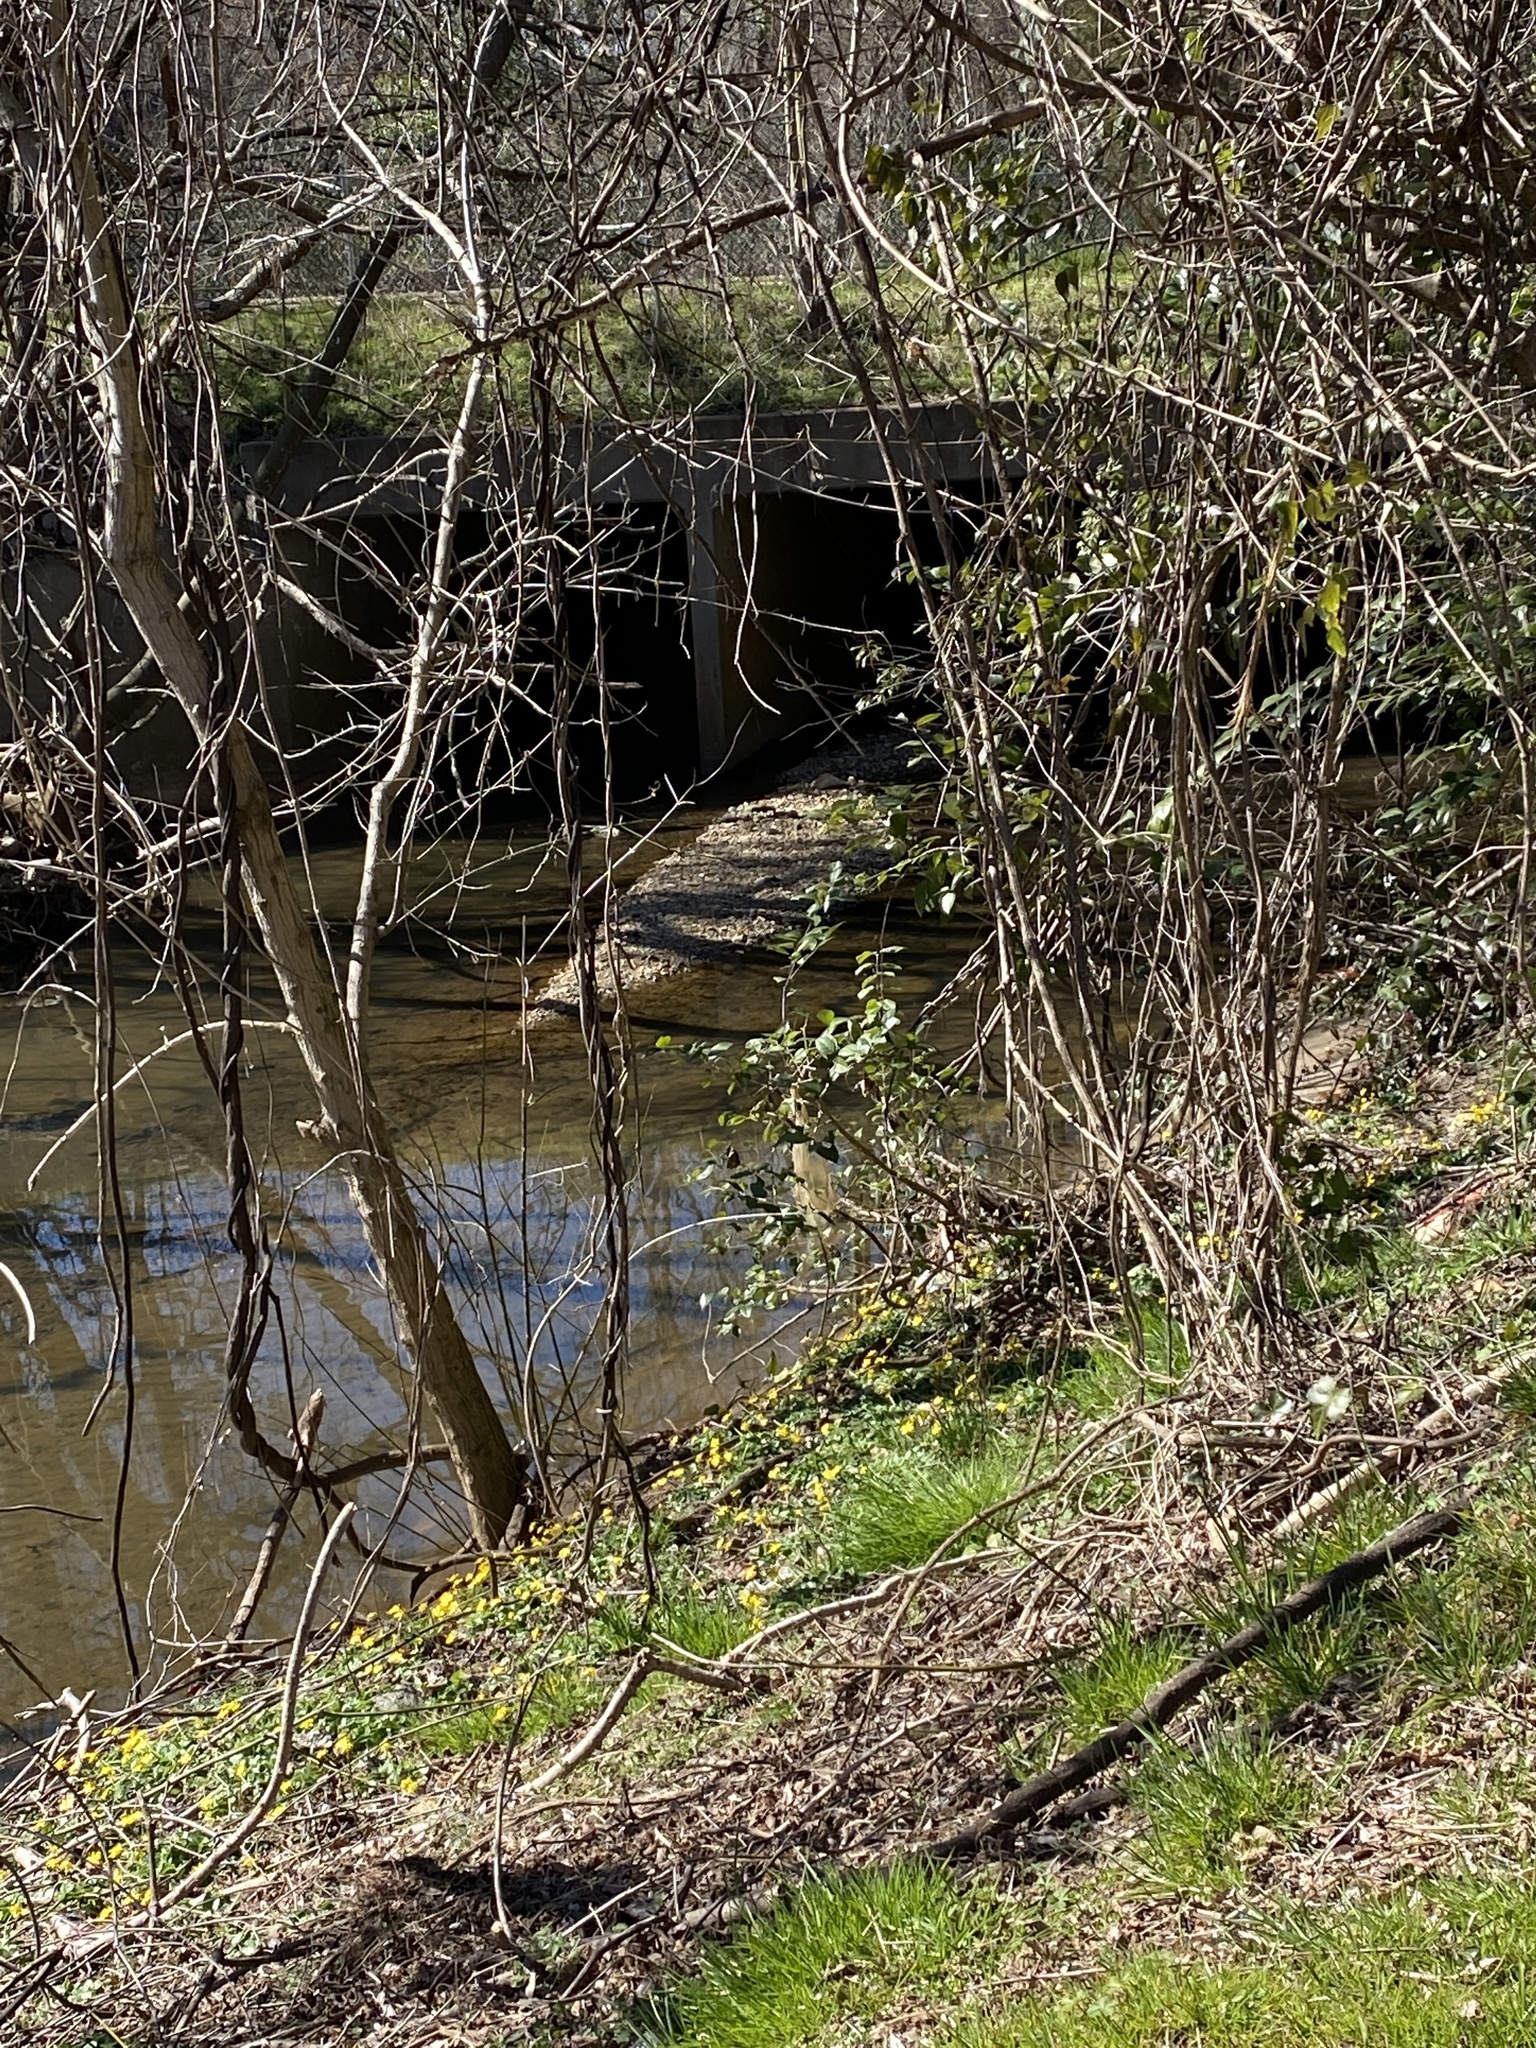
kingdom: Plantae
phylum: Tracheophyta
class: Magnoliopsida
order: Ranunculales
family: Ranunculaceae
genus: Ficaria
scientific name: Ficaria verna
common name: Lesser celandine
